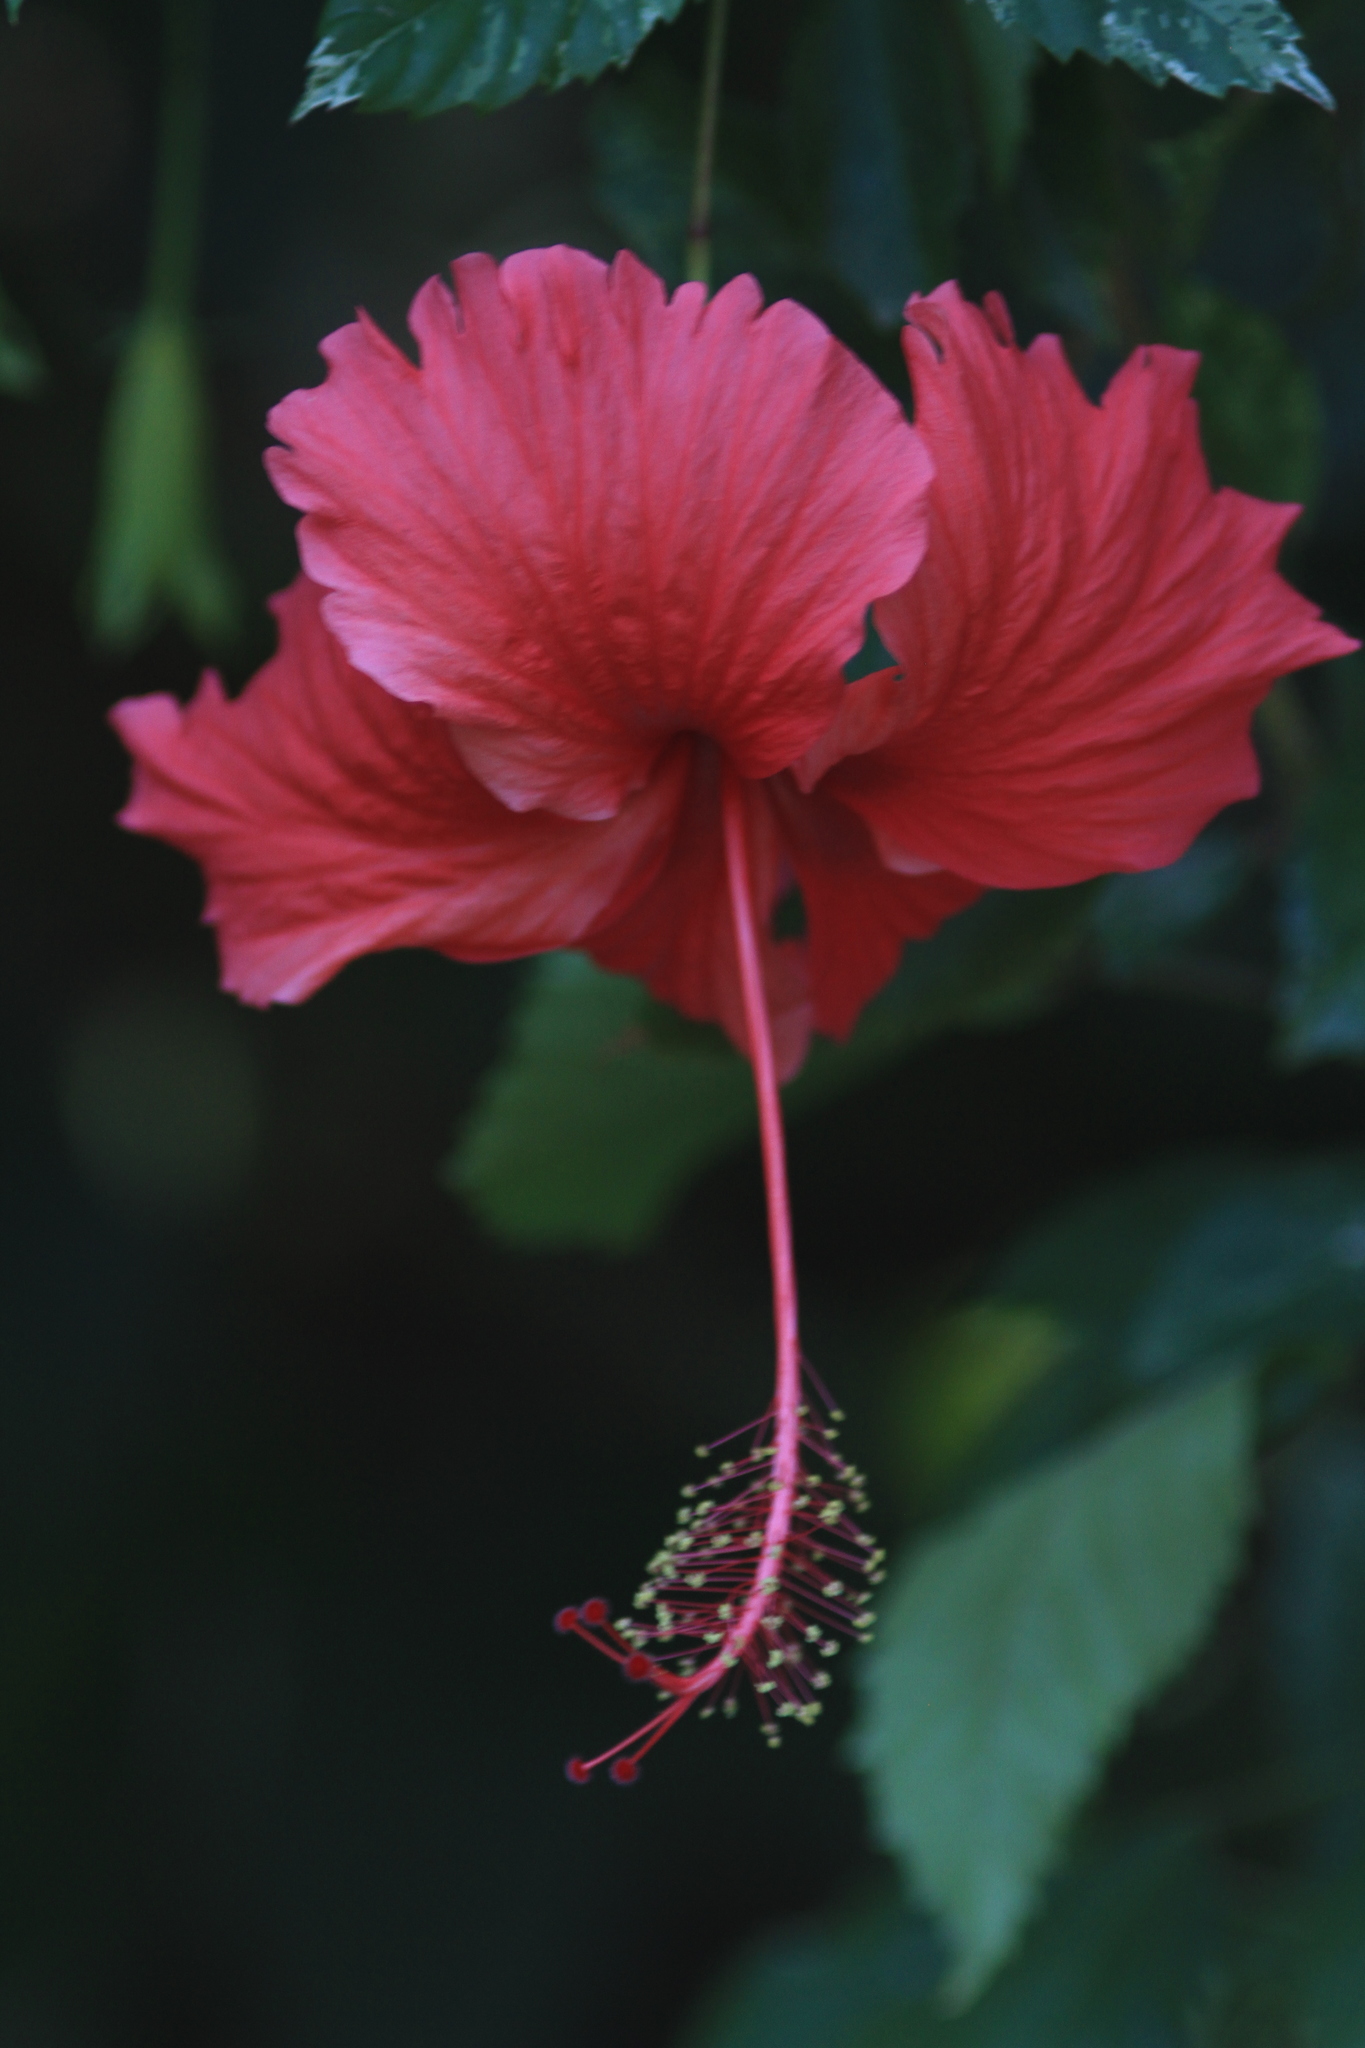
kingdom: Plantae
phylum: Tracheophyta
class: Magnoliopsida
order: Malvales
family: Malvaceae
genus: Hibiscus
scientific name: Hibiscus archeri
